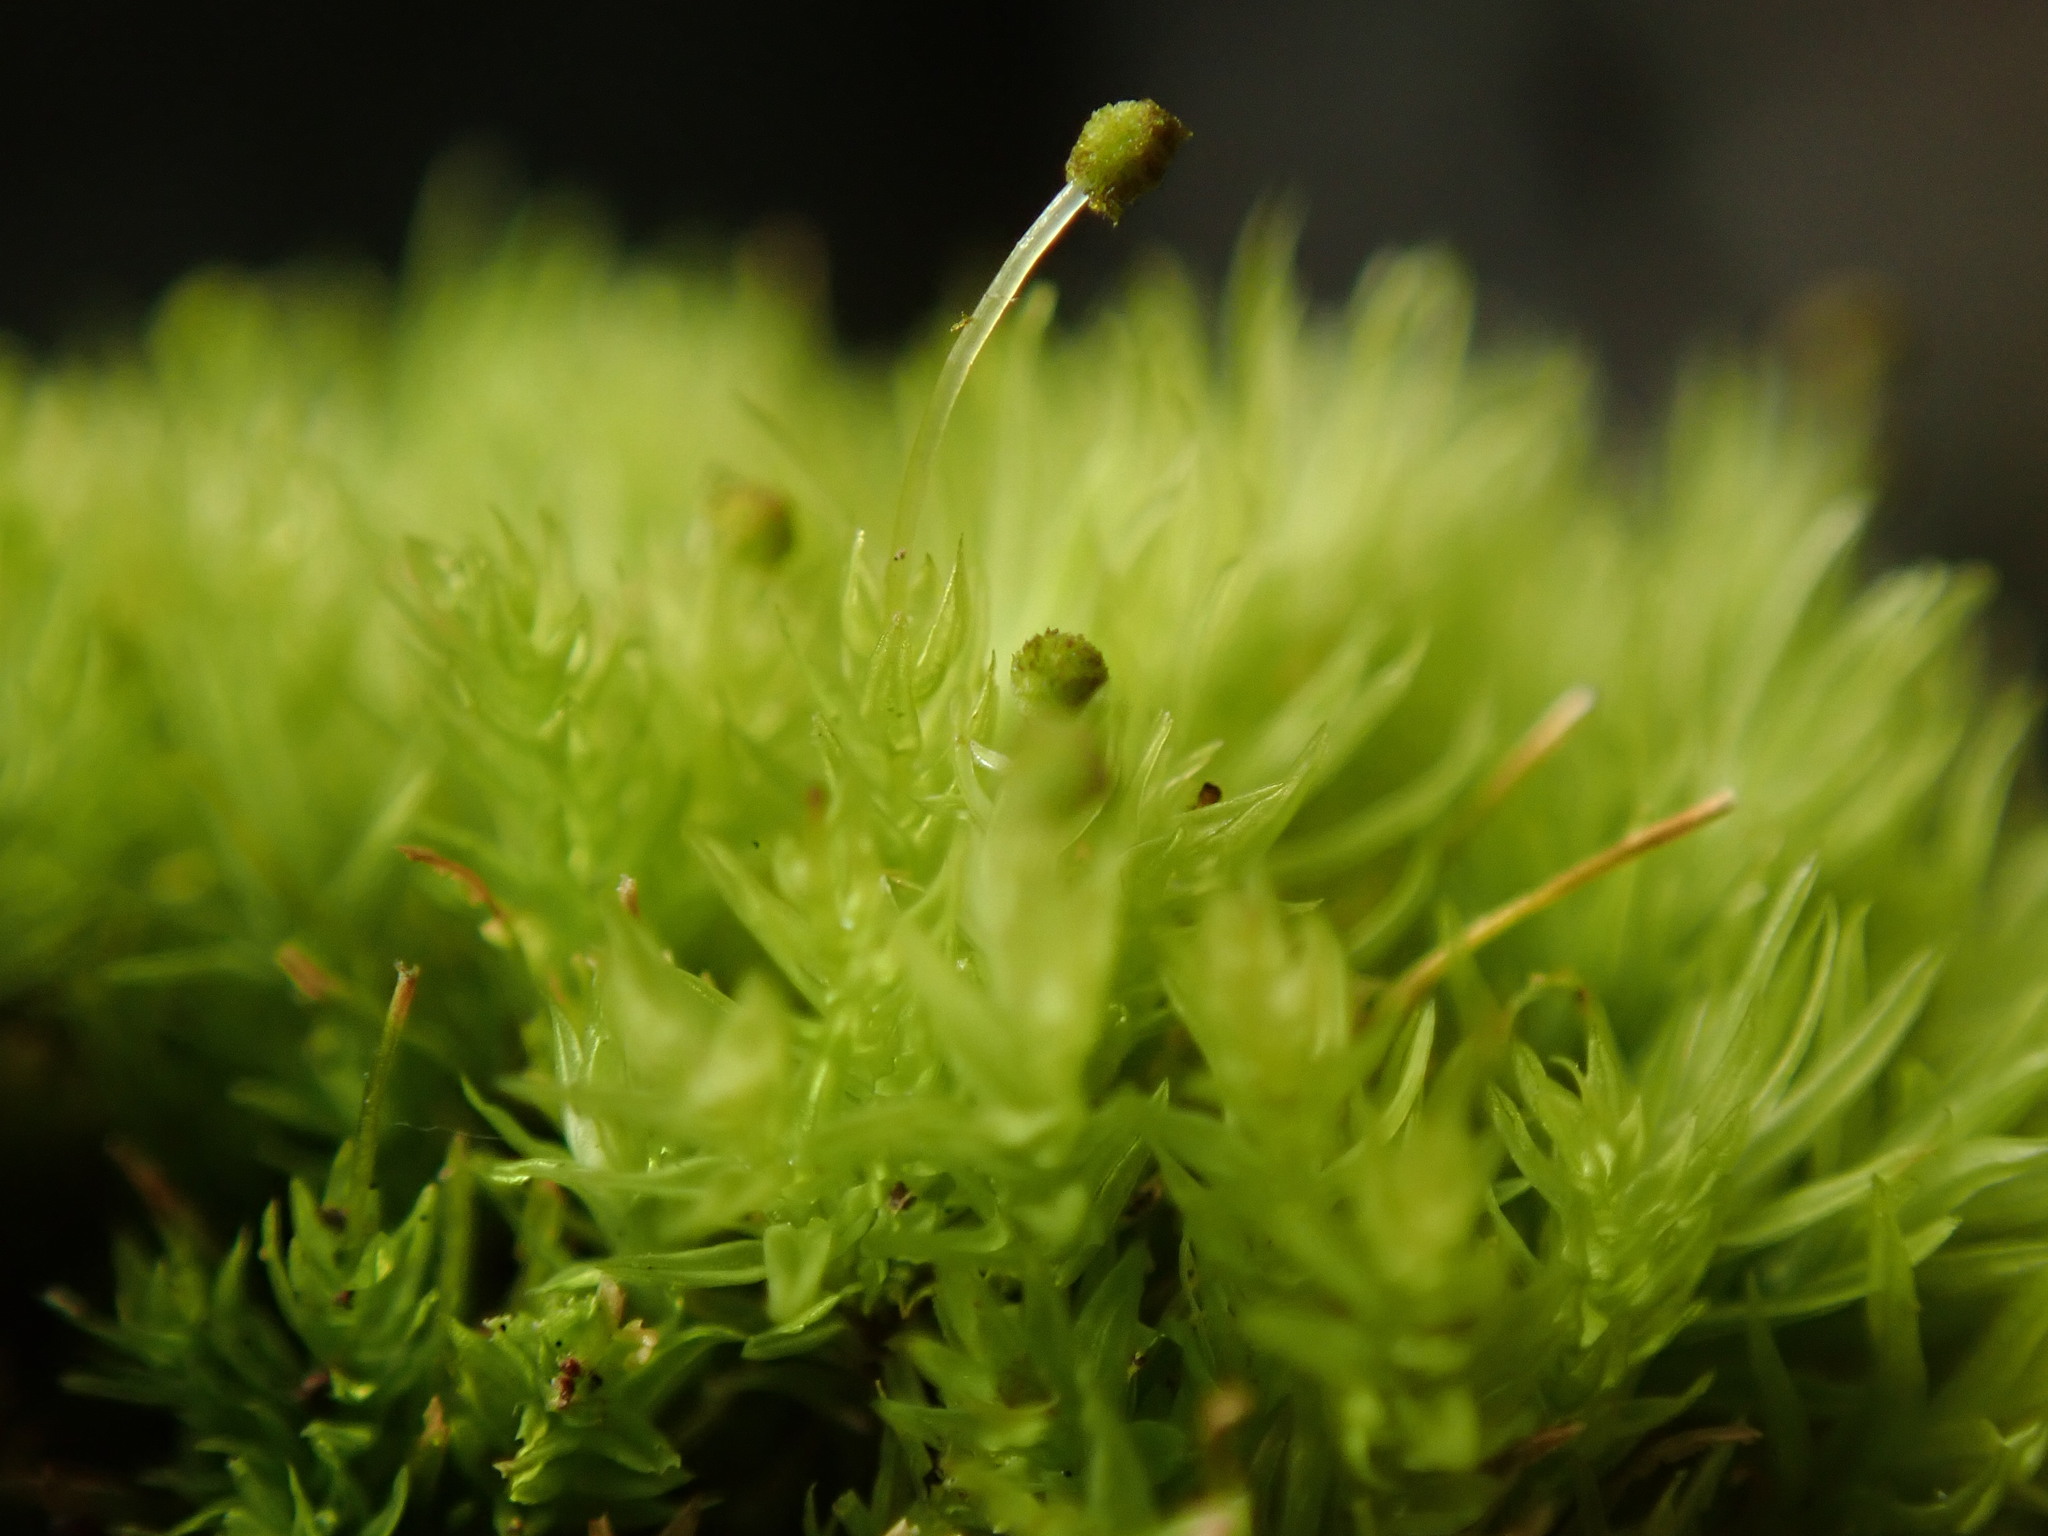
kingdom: Plantae
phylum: Bryophyta
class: Bryopsida
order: Aulacomniales
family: Aulacomniaceae
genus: Aulacomnium
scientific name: Aulacomnium androgynum
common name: Little groove moss
